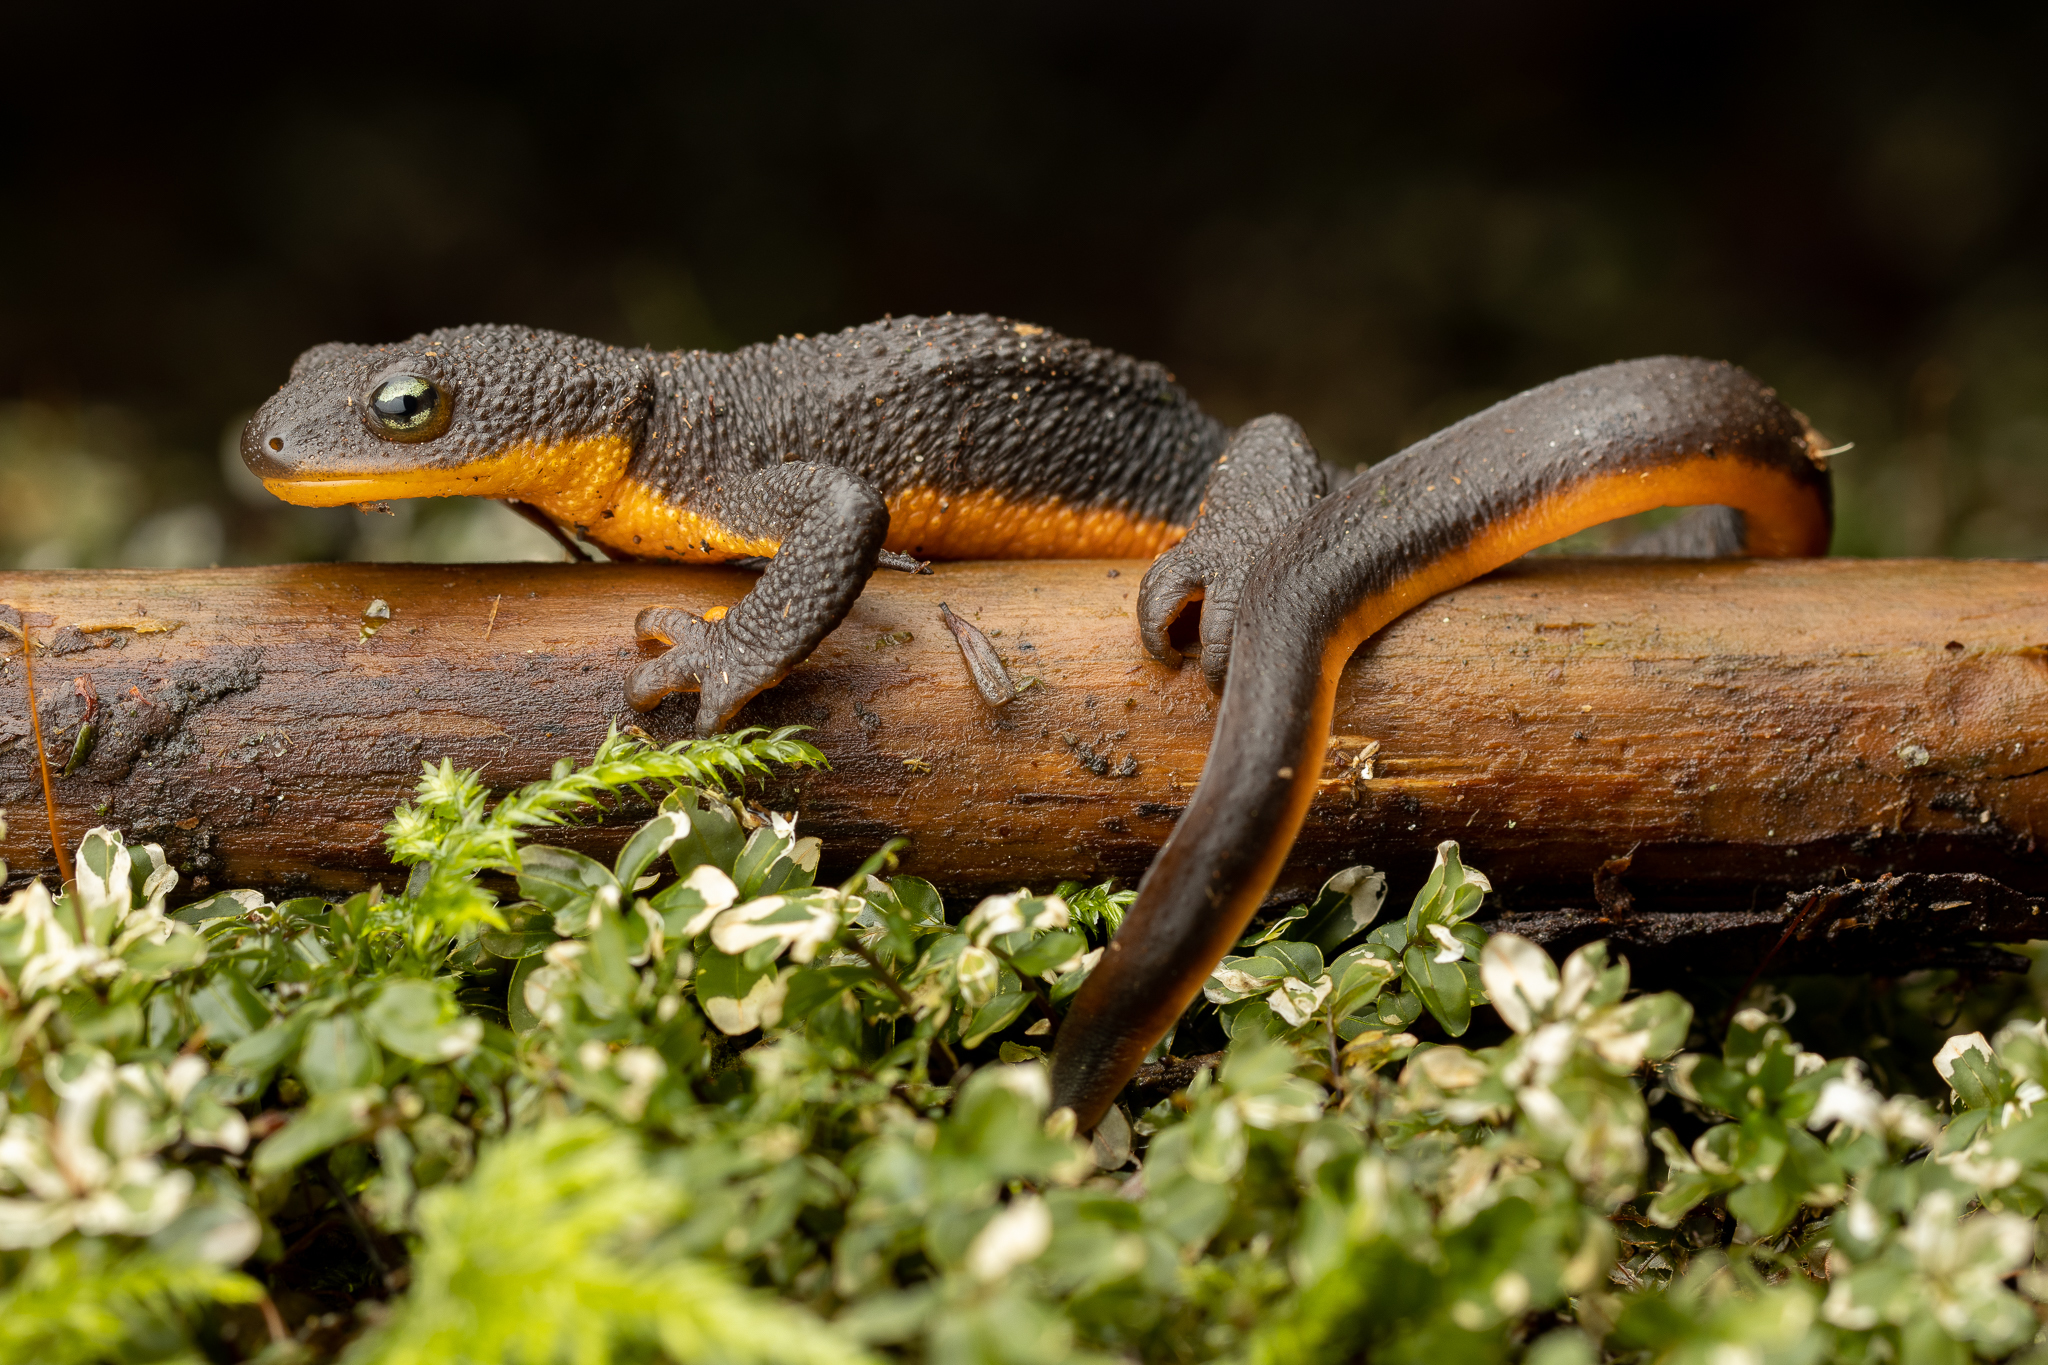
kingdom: Animalia
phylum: Chordata
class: Amphibia
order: Caudata
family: Salamandridae
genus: Taricha
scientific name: Taricha granulosa
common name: Roughskin newt
